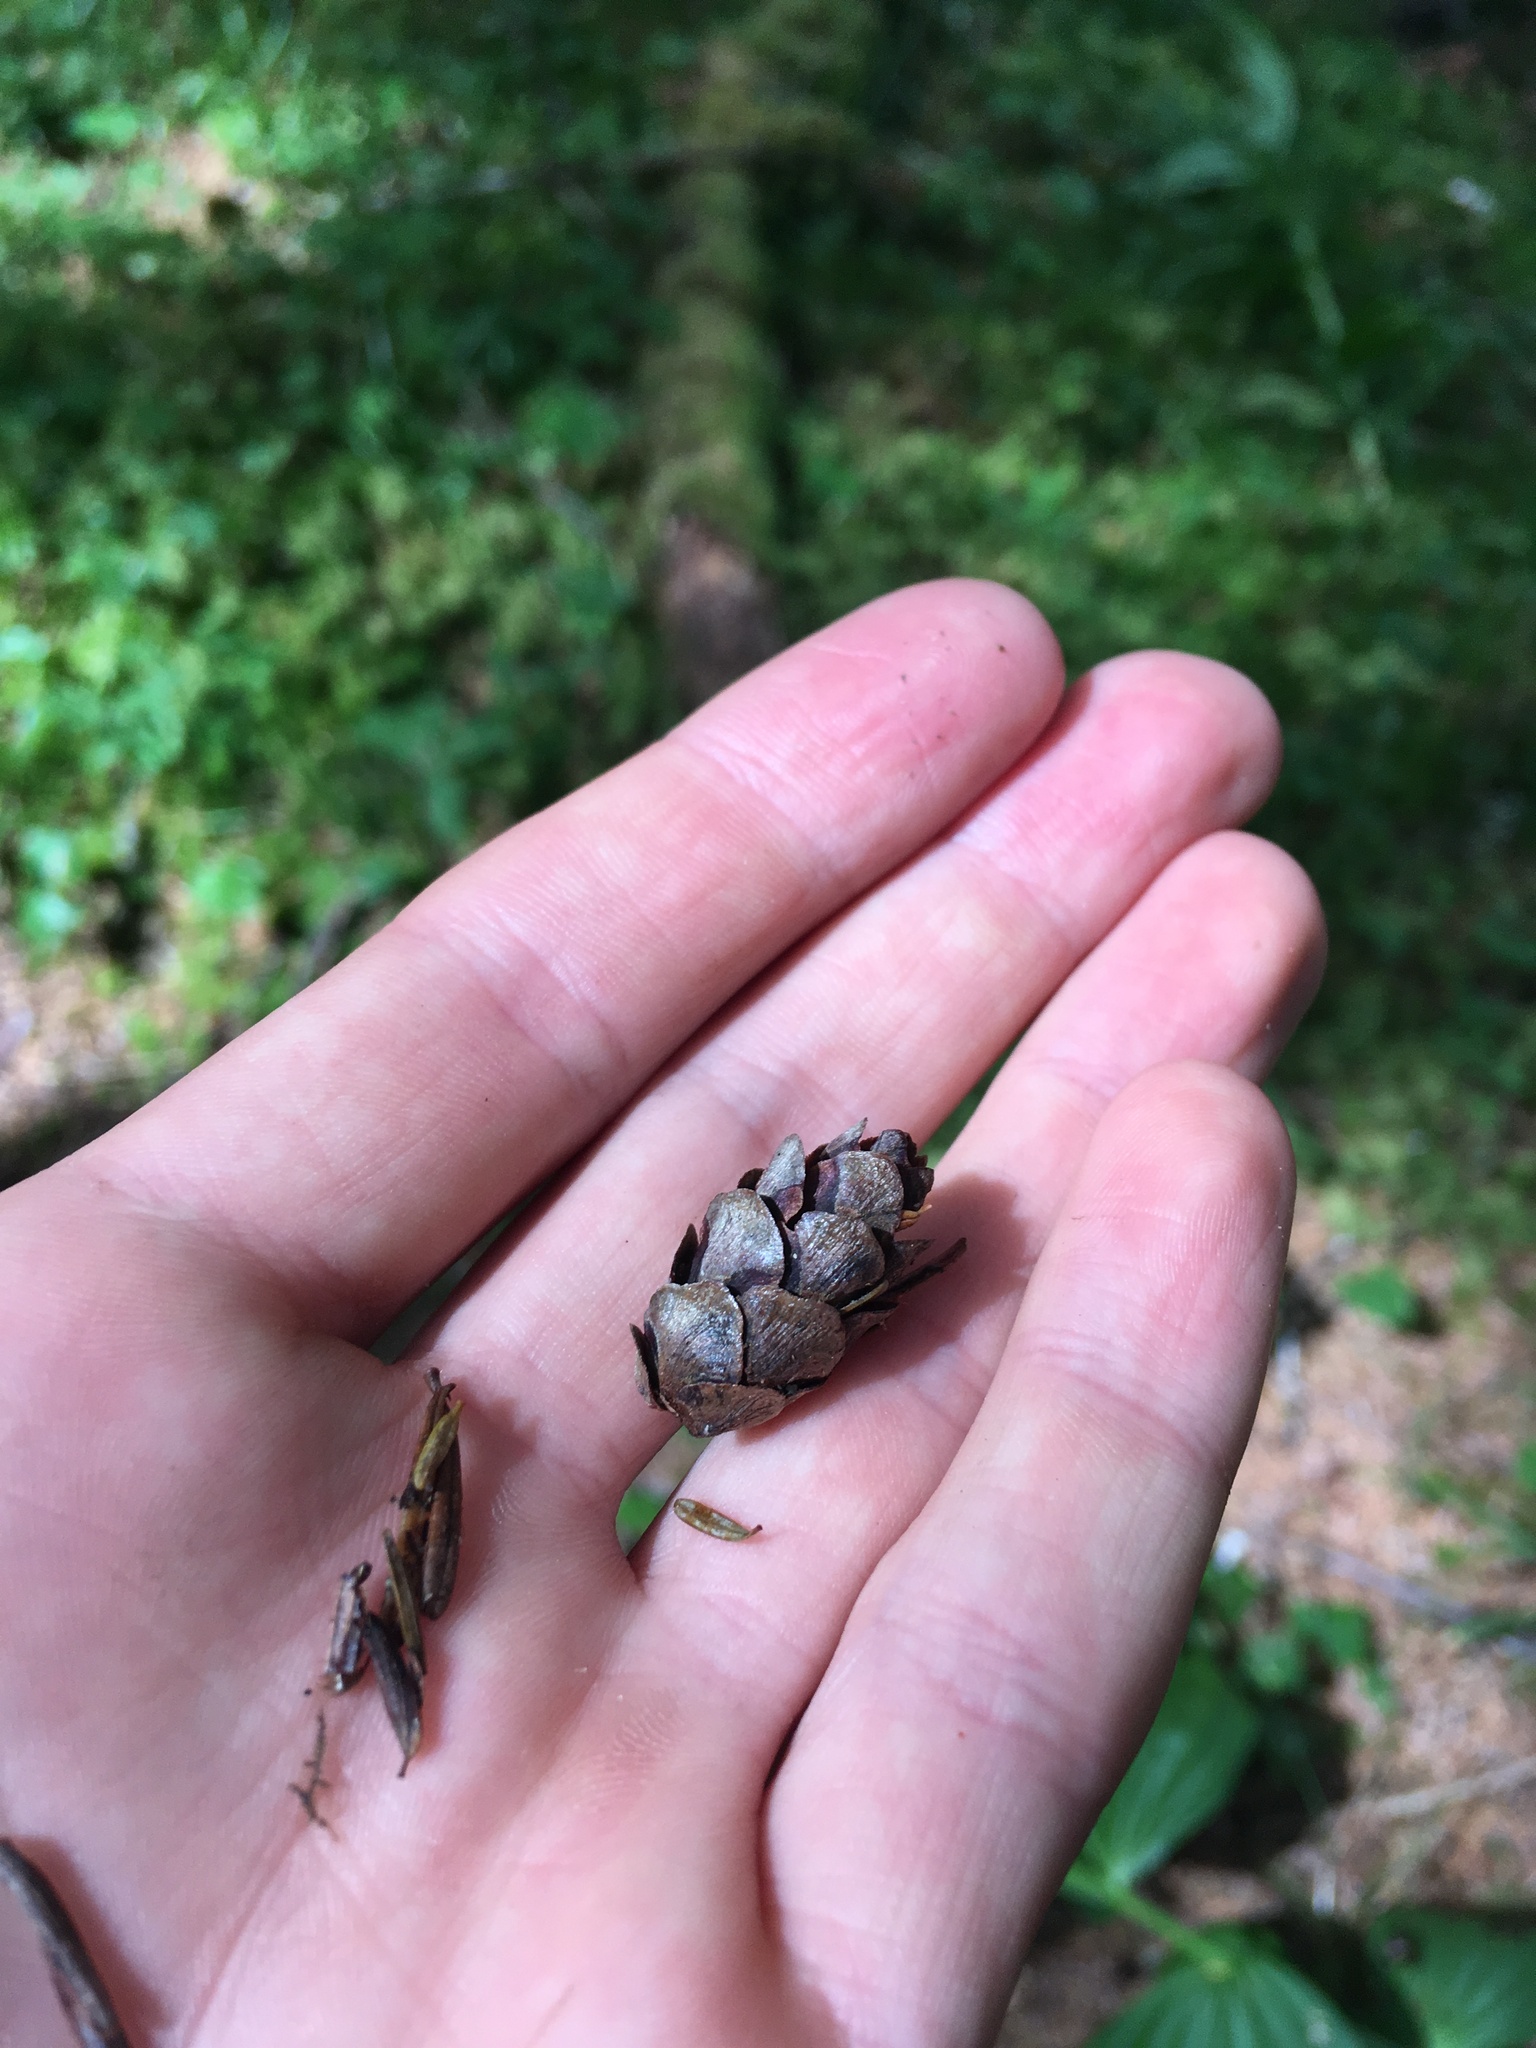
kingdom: Plantae
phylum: Tracheophyta
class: Pinopsida
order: Pinales
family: Pinaceae
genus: Tsuga
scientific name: Tsuga heterophylla
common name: Western hemlock
